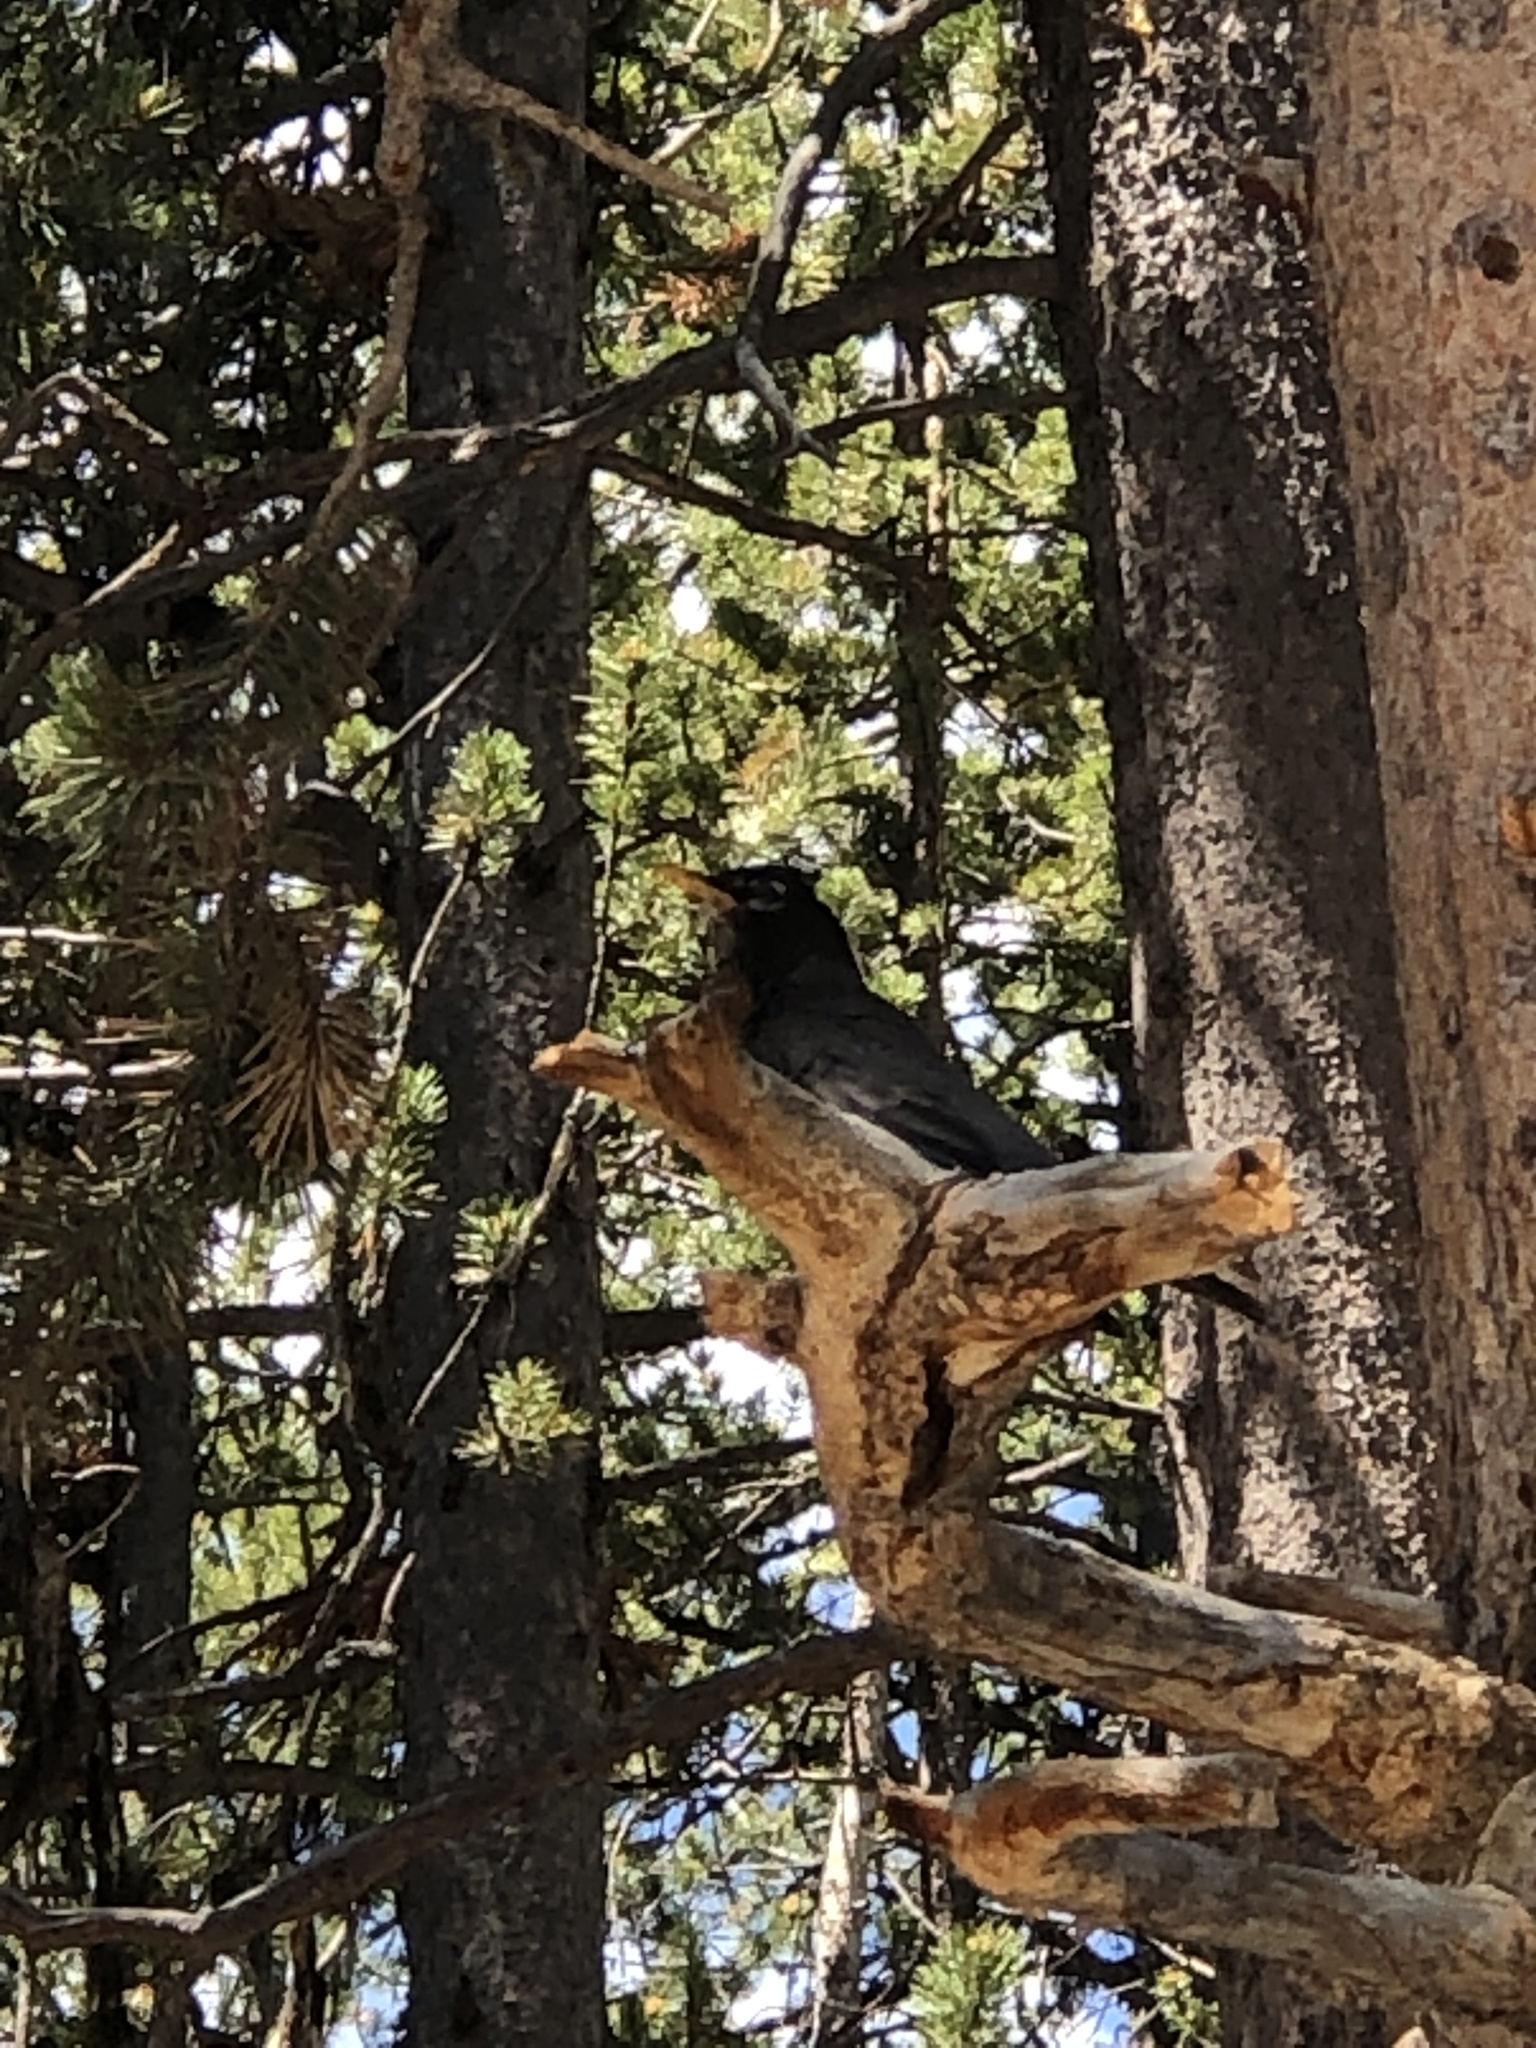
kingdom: Animalia
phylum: Chordata
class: Aves
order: Passeriformes
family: Turdidae
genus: Turdus
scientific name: Turdus migratorius
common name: American robin
